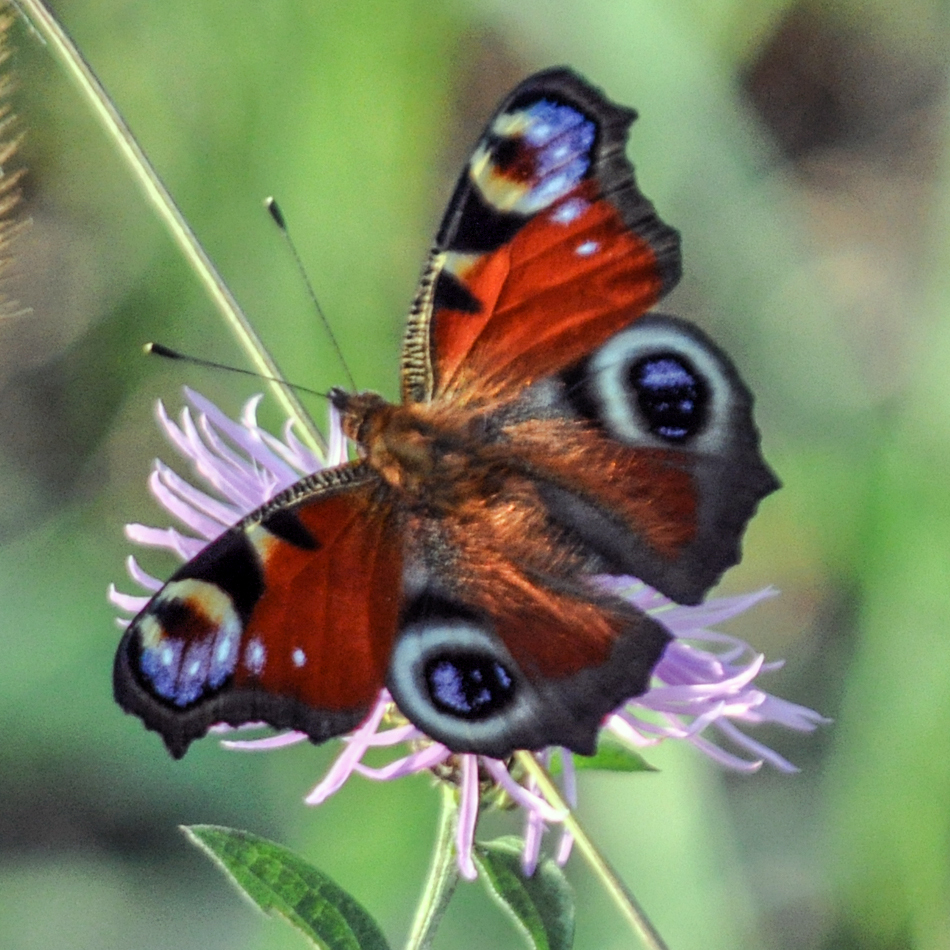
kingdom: Animalia
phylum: Arthropoda
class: Insecta
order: Lepidoptera
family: Nymphalidae
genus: Aglais
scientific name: Aglais io
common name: Peacock
